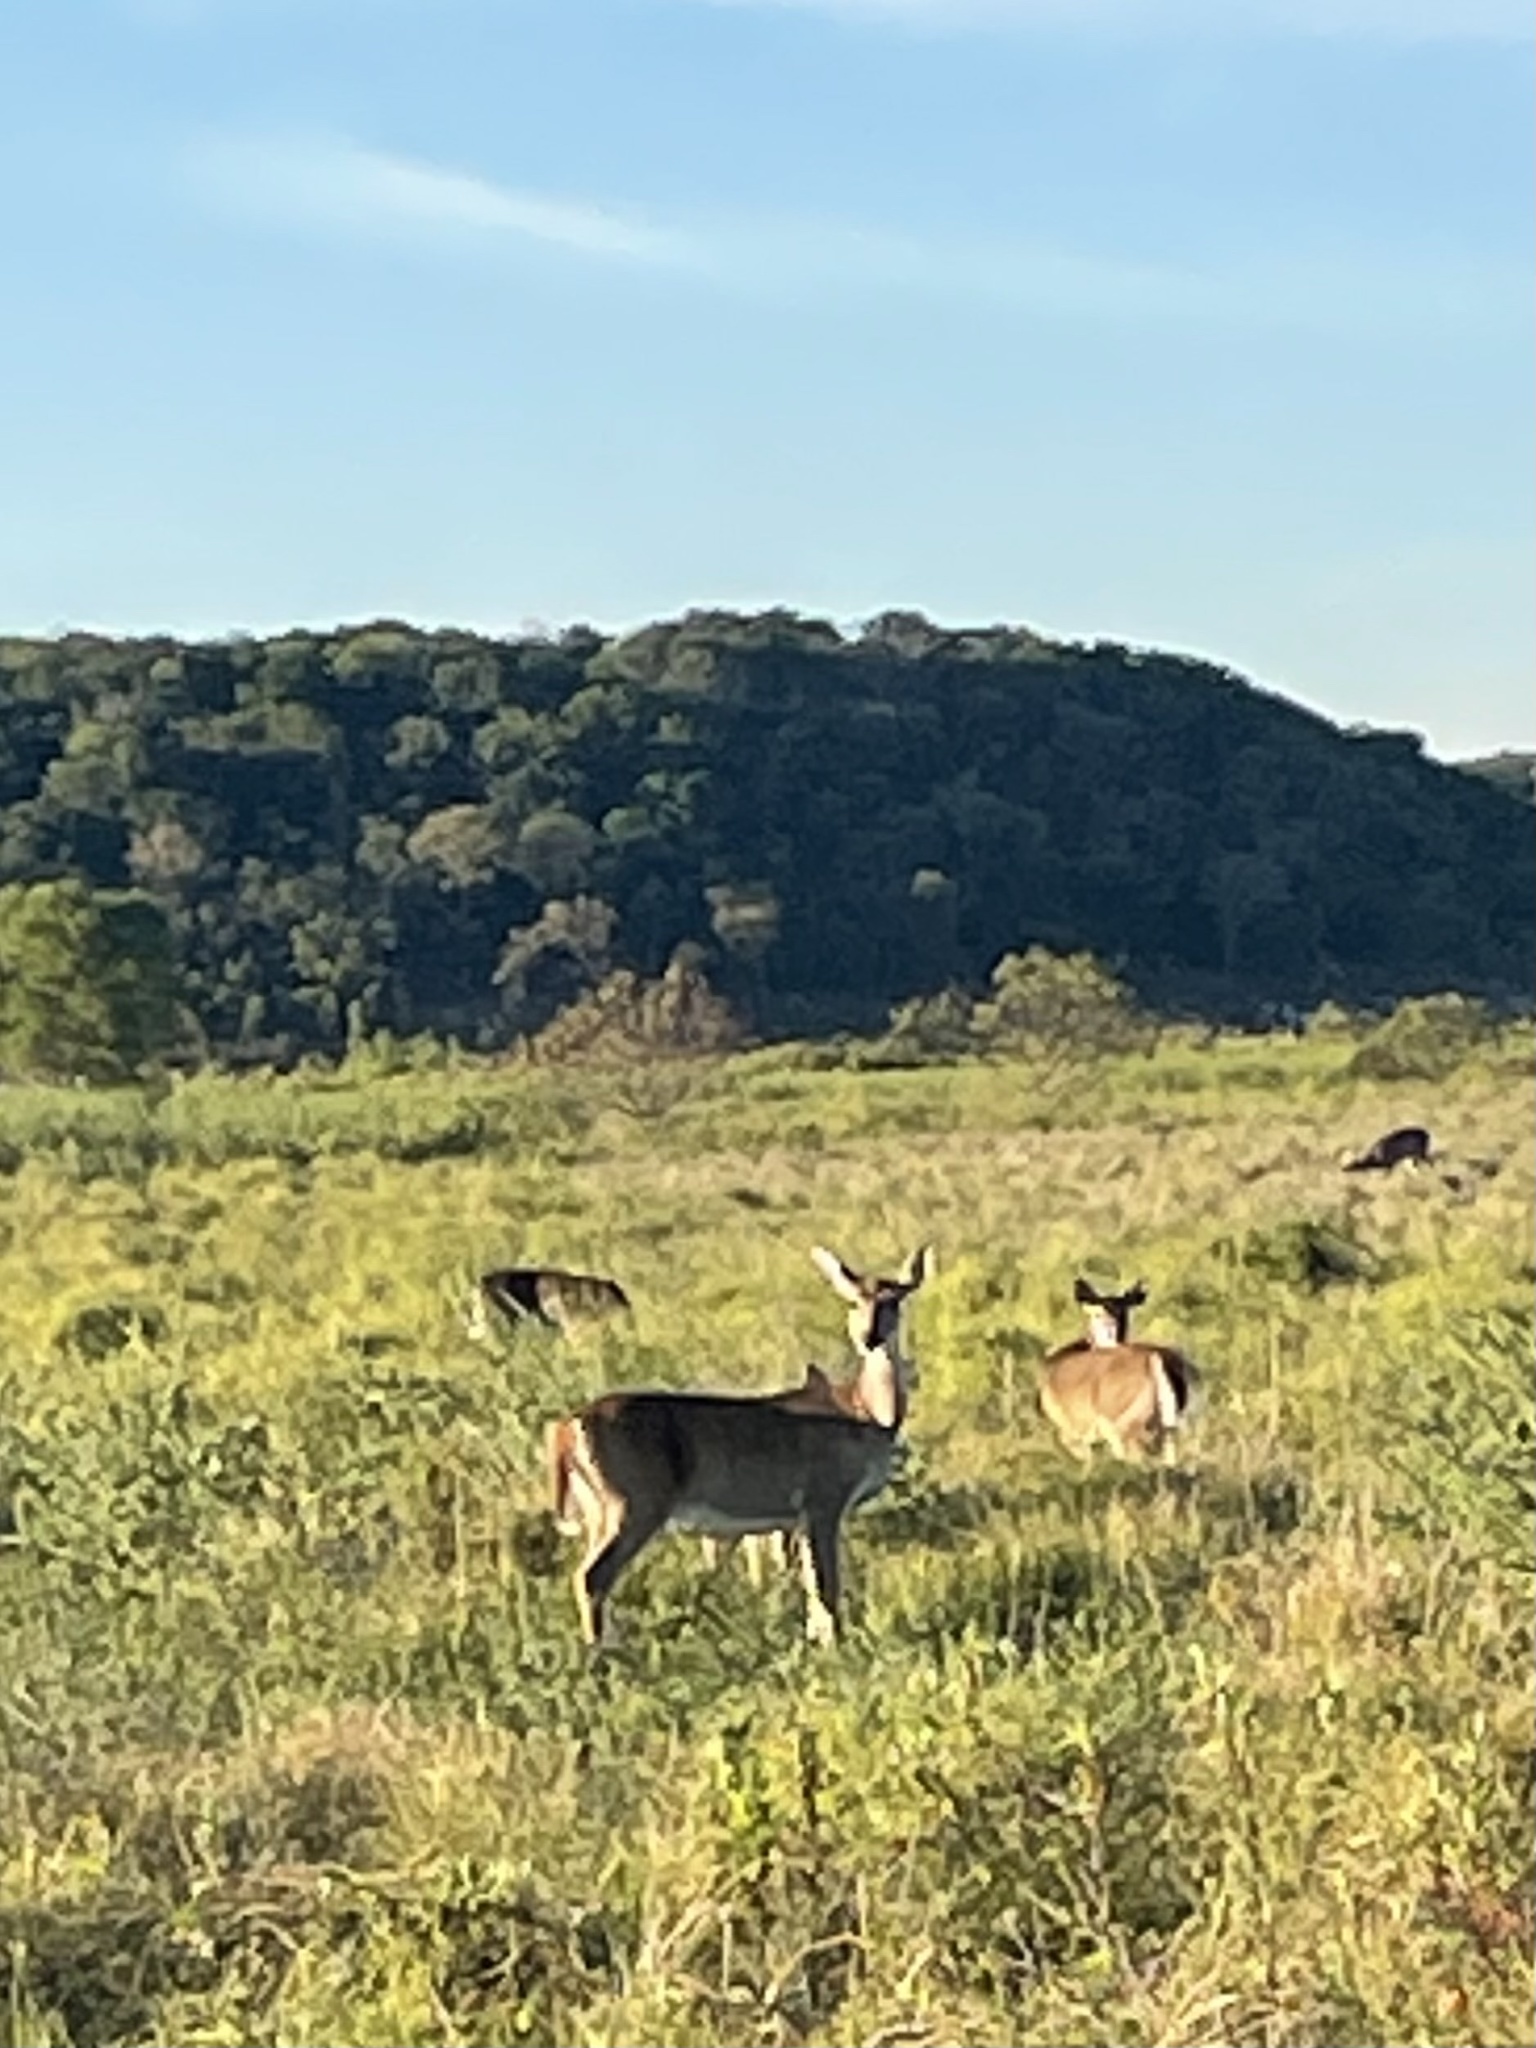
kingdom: Animalia
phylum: Chordata
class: Mammalia
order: Artiodactyla
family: Cervidae
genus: Odocoileus
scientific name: Odocoileus virginianus
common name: White-tailed deer
